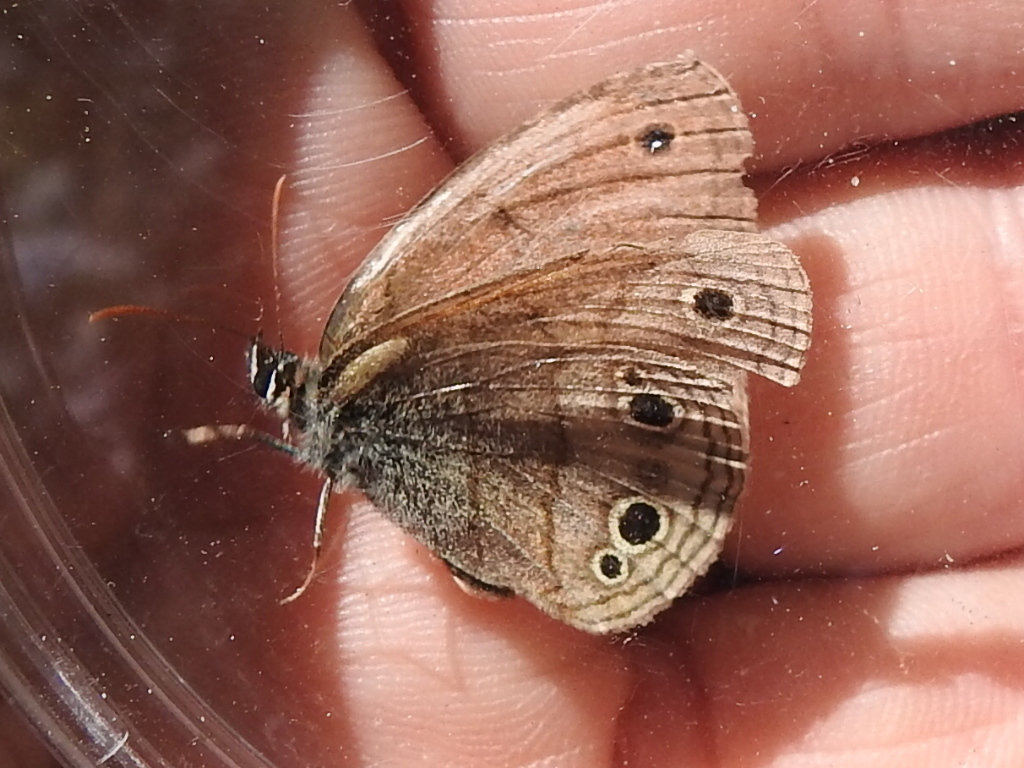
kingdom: Animalia
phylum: Arthropoda
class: Insecta
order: Lepidoptera
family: Nymphalidae
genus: Euptychia
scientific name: Euptychia cymela
